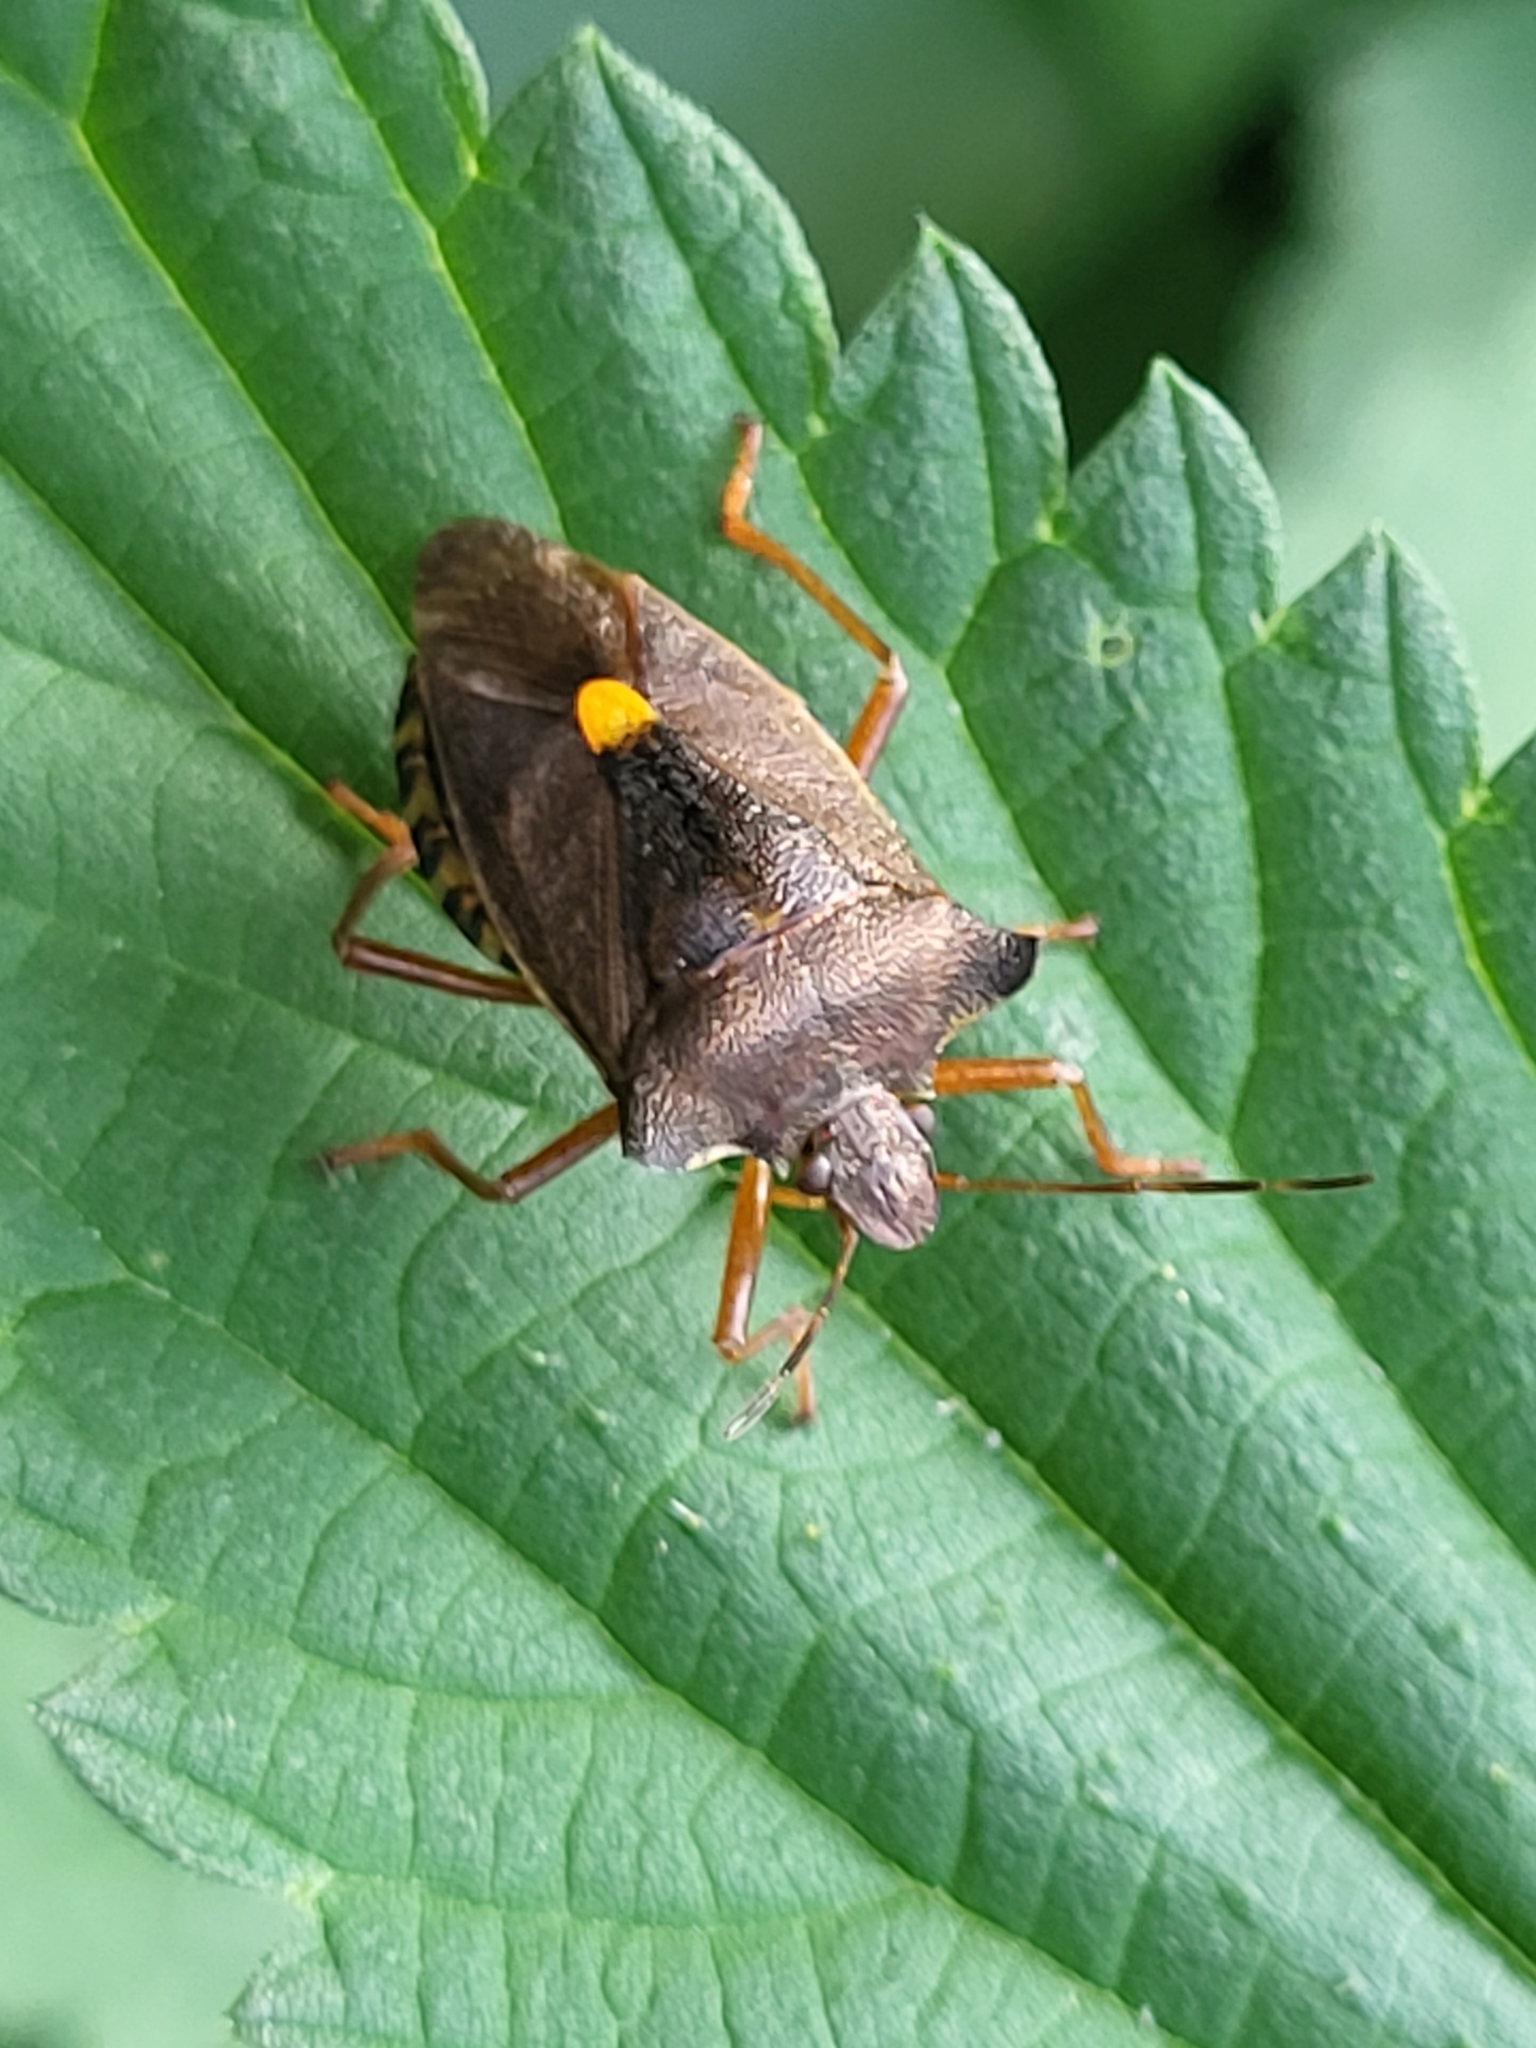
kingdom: Animalia
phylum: Arthropoda
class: Insecta
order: Hemiptera
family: Pentatomidae
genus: Pentatoma
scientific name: Pentatoma rufipes
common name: Forest bug
